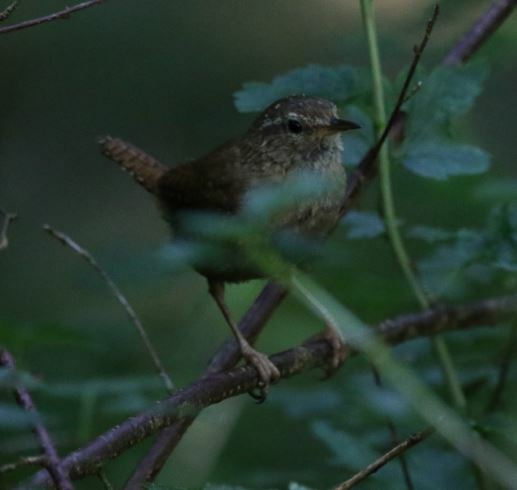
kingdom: Animalia
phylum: Chordata
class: Aves
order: Passeriformes
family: Troglodytidae
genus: Troglodytes
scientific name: Troglodytes troglodytes
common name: Eurasian wren
